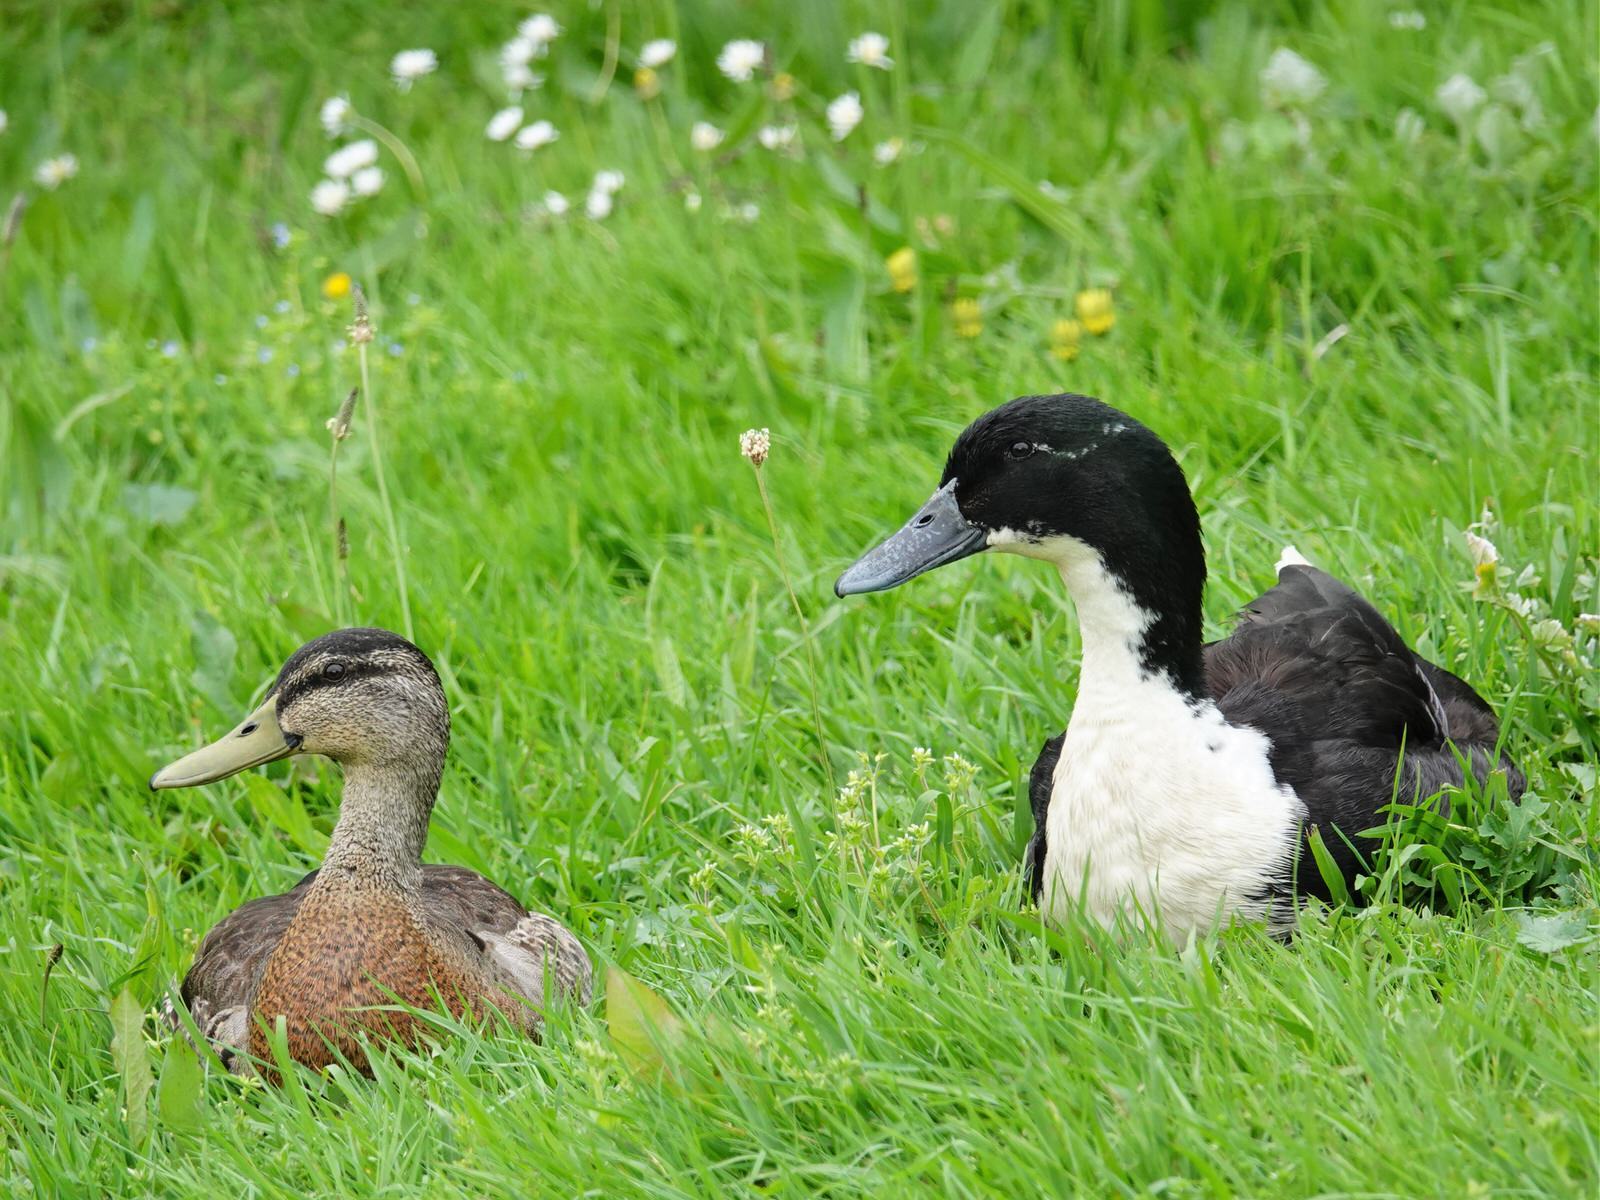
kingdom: Animalia
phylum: Chordata
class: Aves
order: Anseriformes
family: Anatidae
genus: Anas
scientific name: Anas platyrhynchos
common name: Mallard
